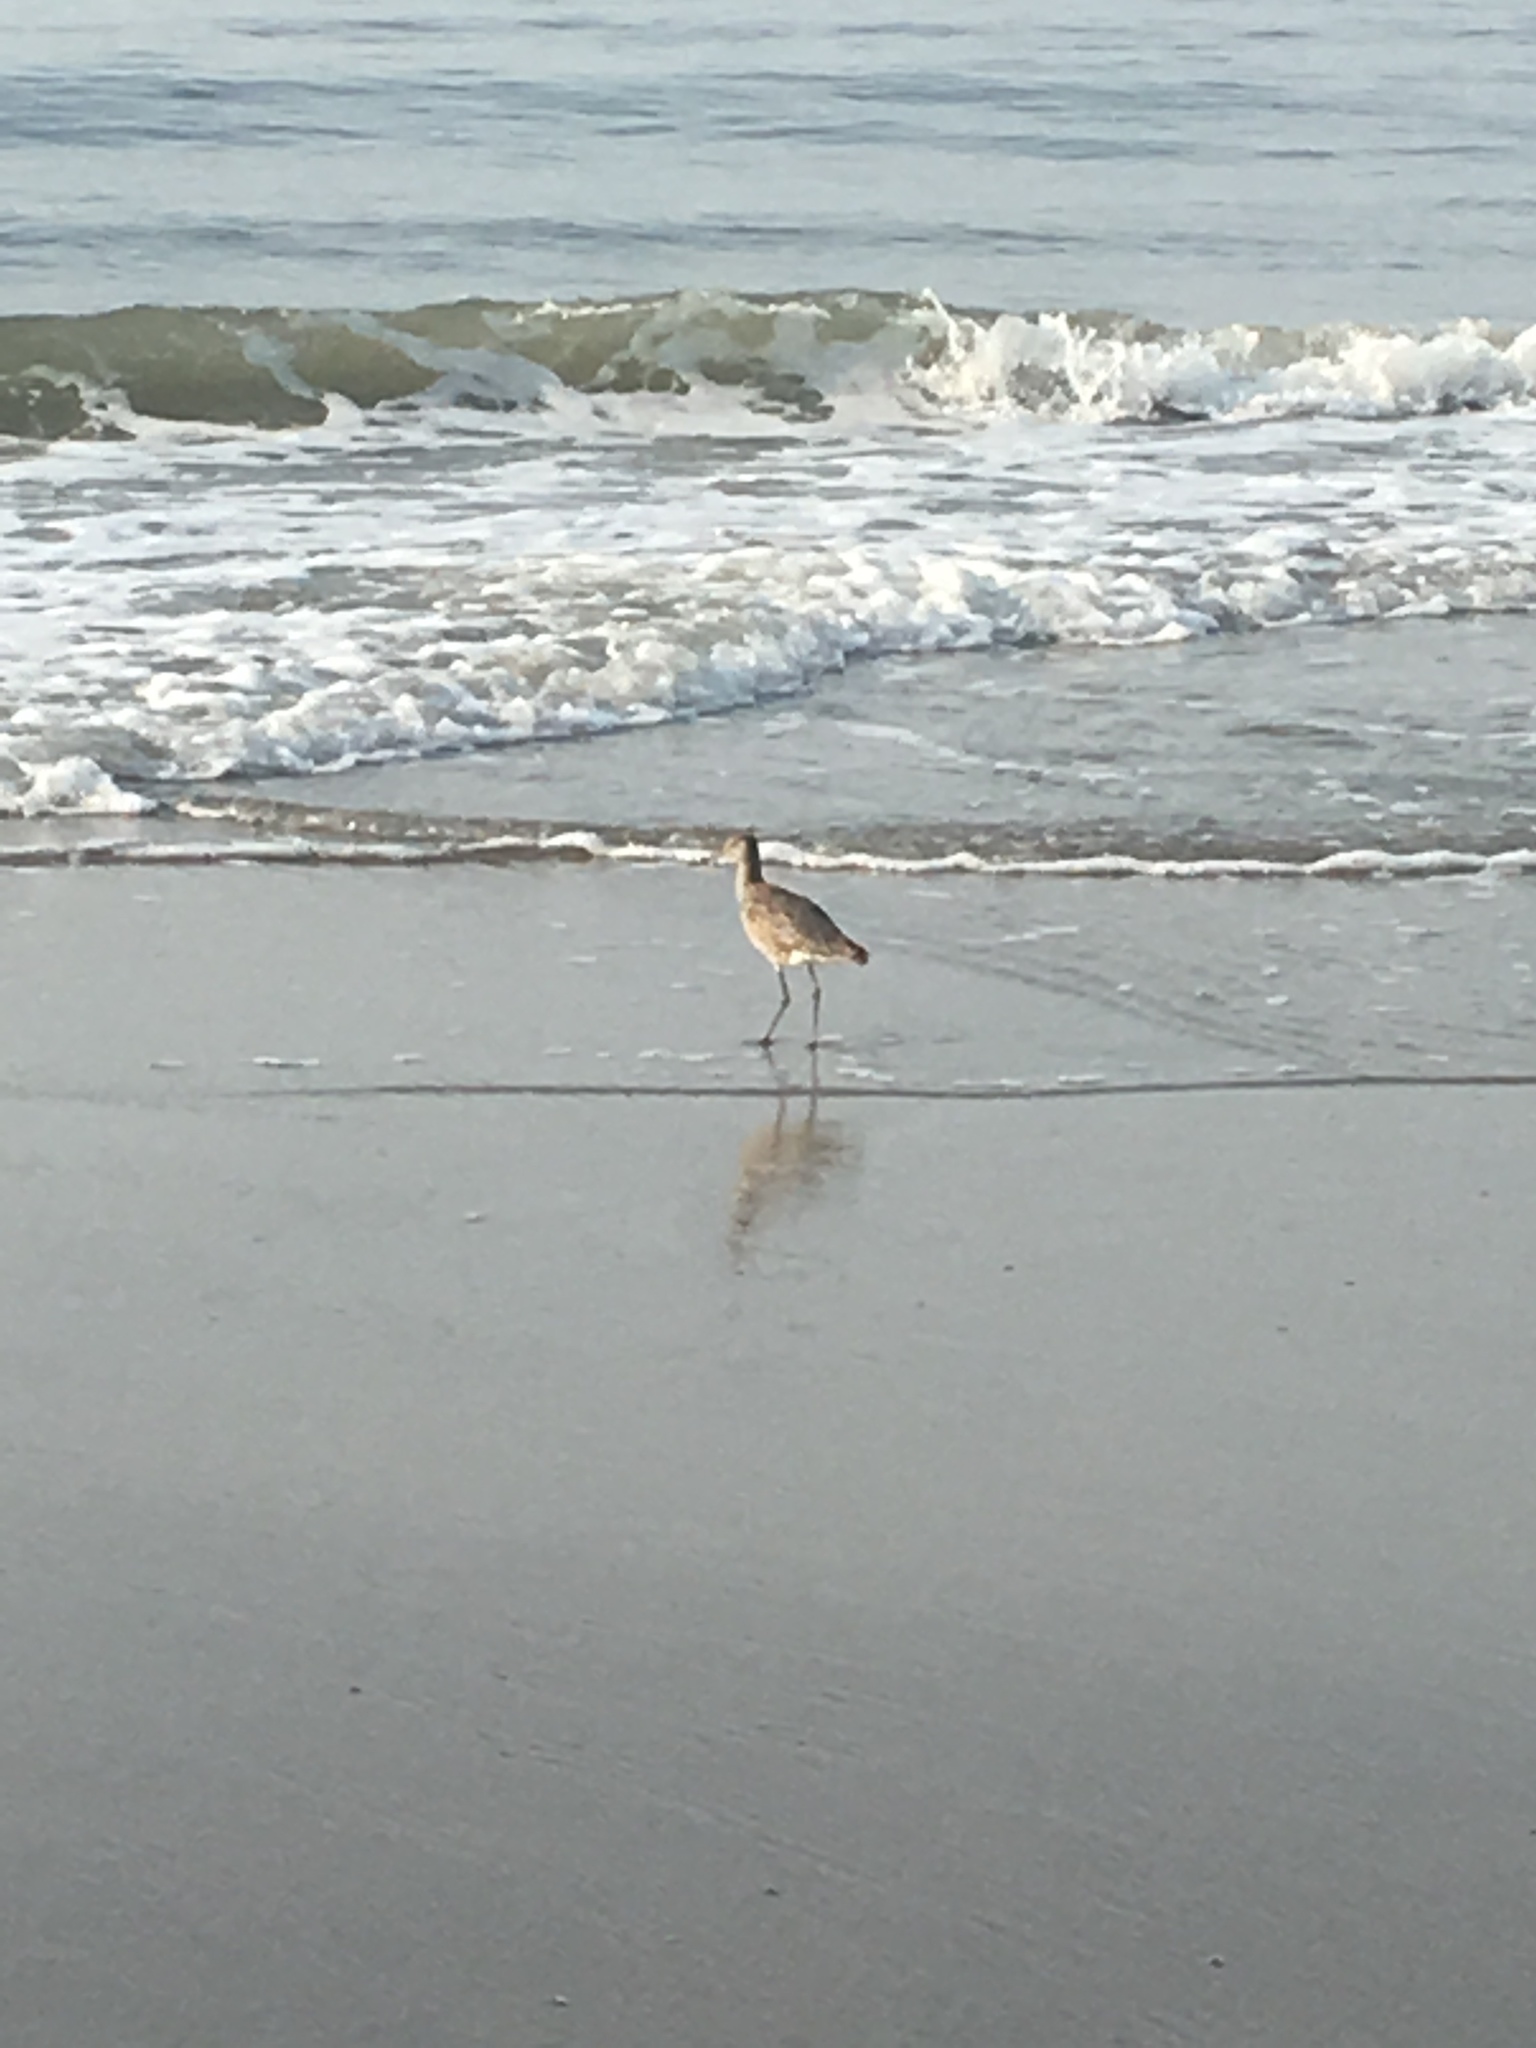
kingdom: Animalia
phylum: Chordata
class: Aves
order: Charadriiformes
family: Scolopacidae
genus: Tringa
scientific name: Tringa semipalmata
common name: Willet
